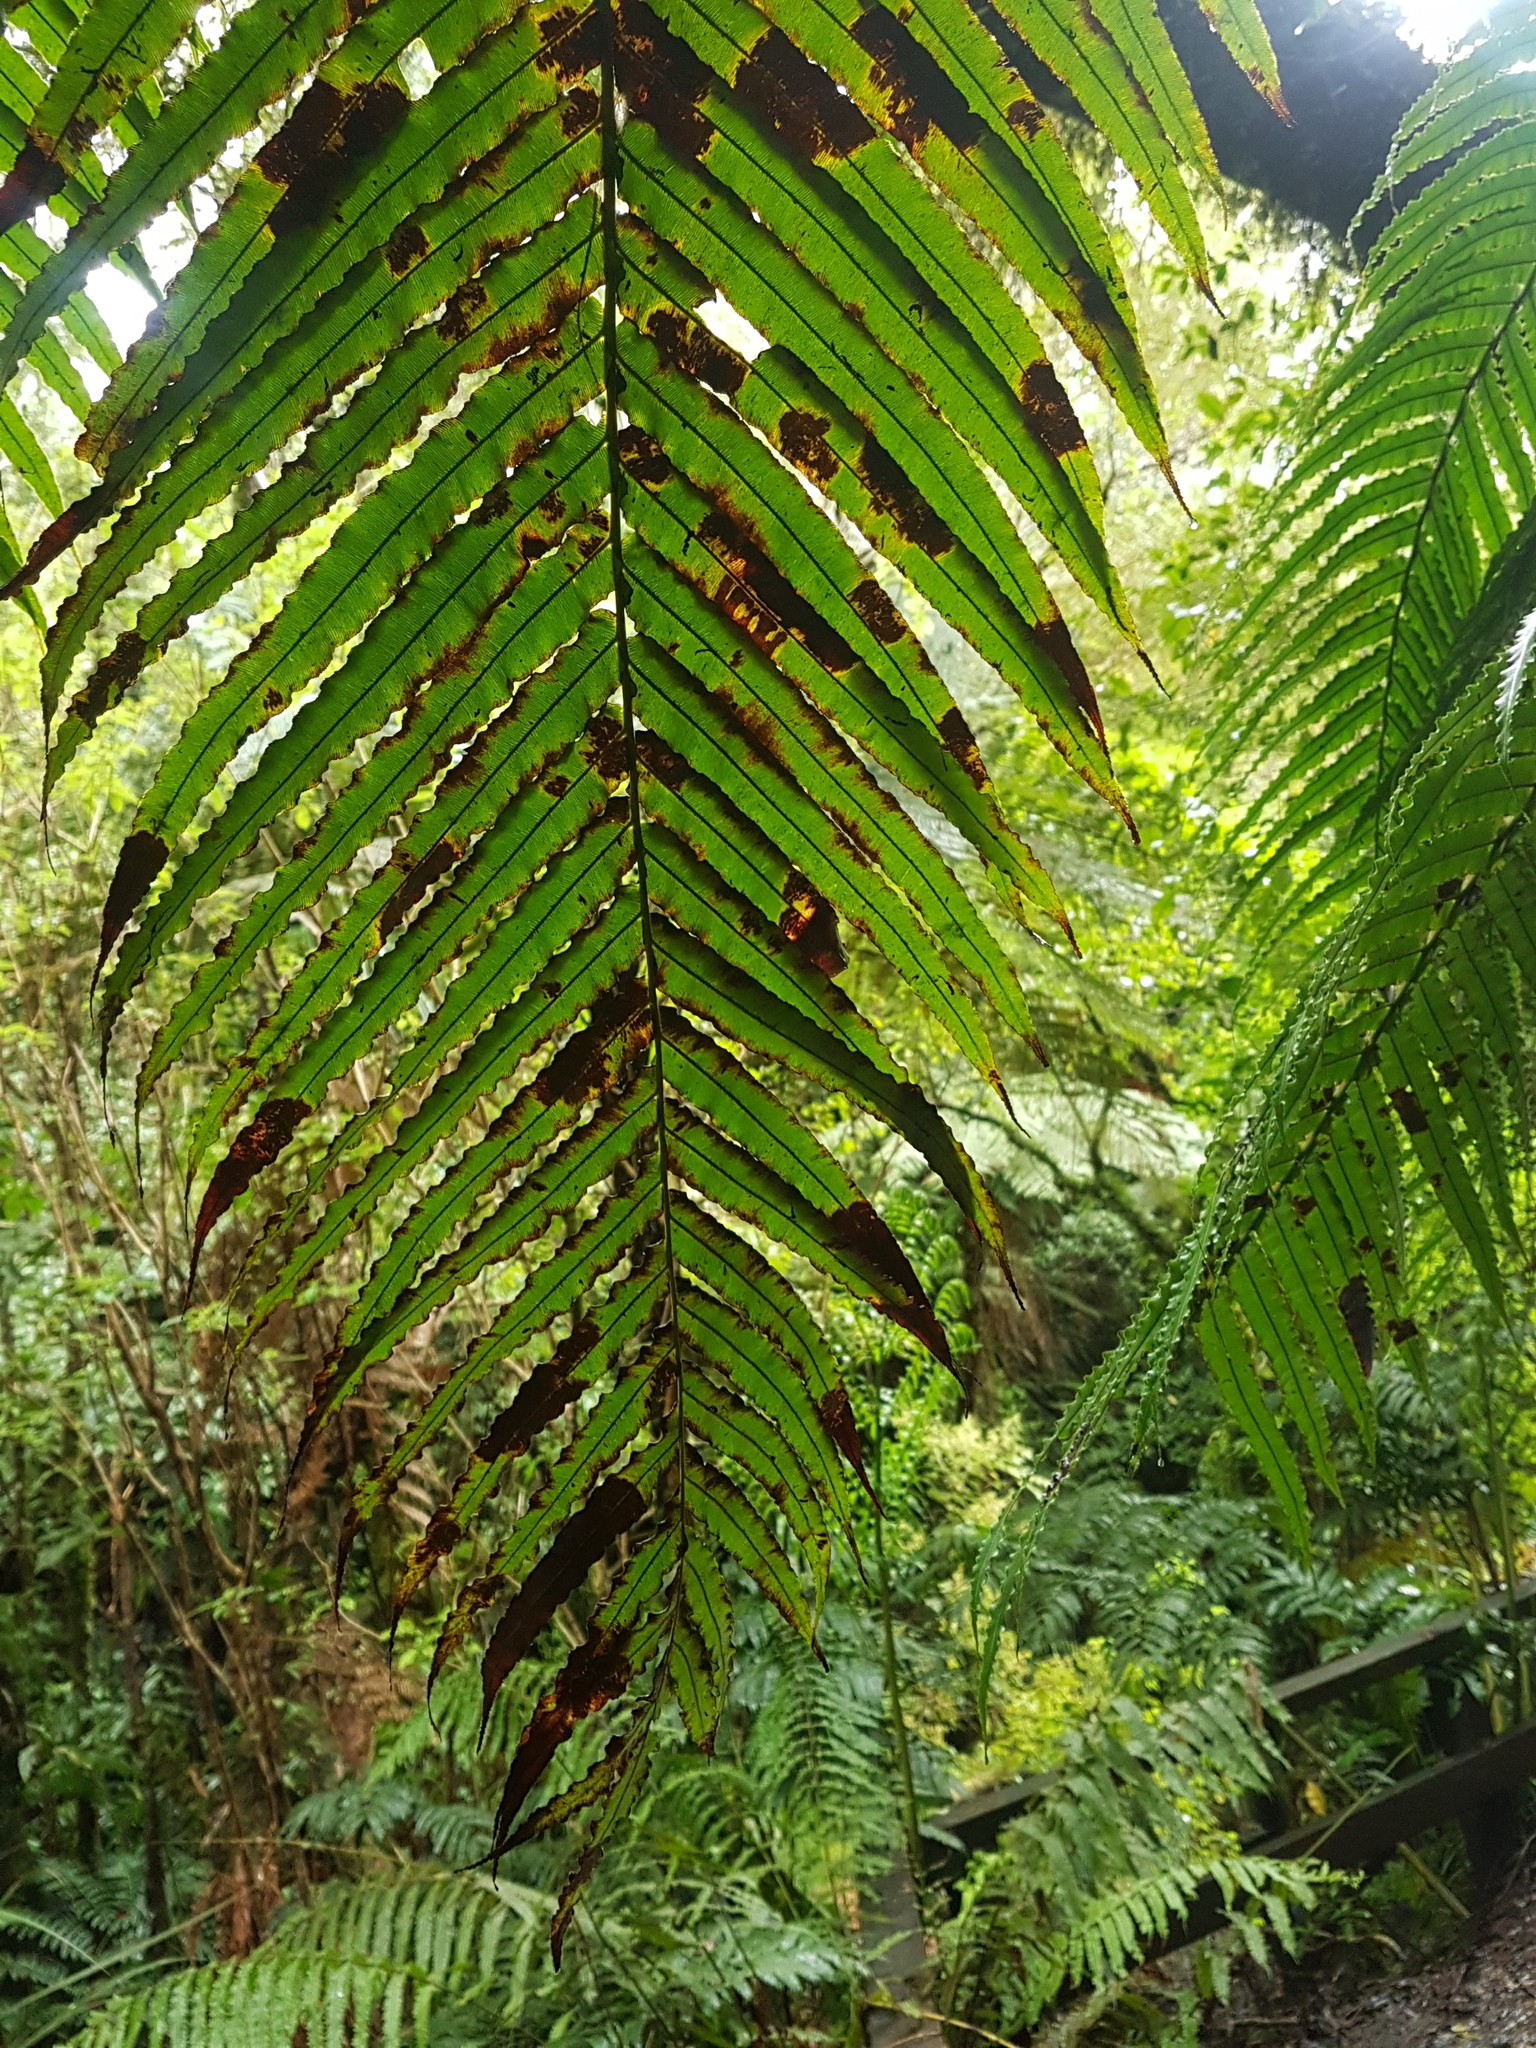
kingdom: Plantae
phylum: Tracheophyta
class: Polypodiopsida
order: Polypodiales
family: Blechnaceae
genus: Parablechnum
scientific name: Parablechnum novae-zelandiae
